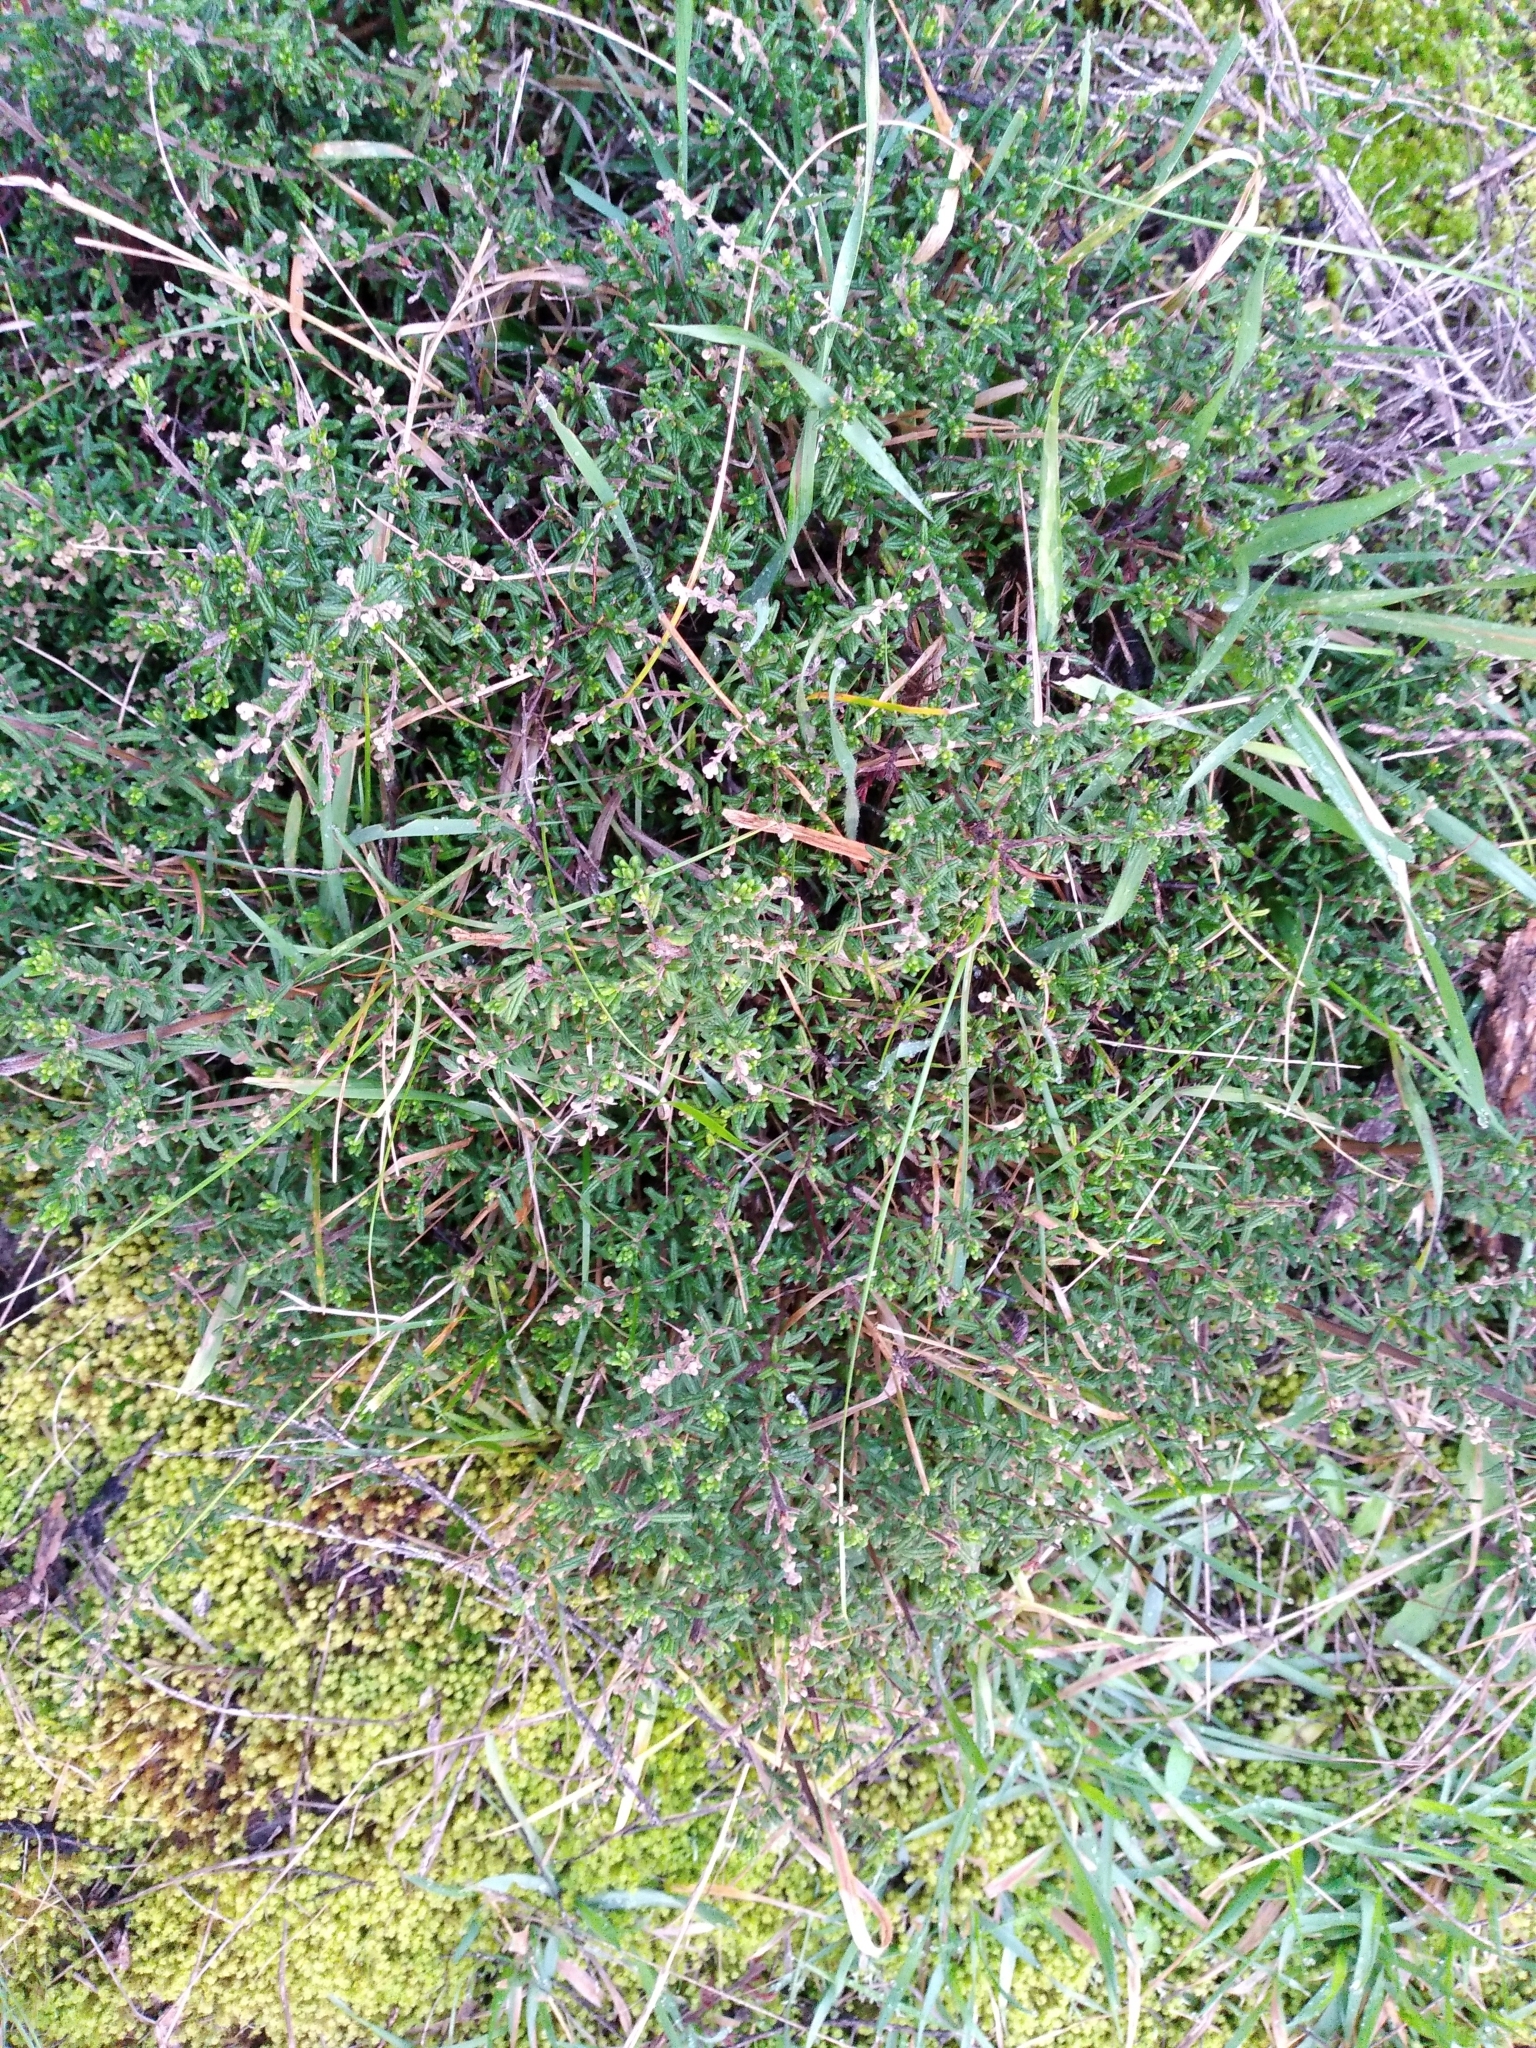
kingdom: Plantae
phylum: Tracheophyta
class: Magnoliopsida
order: Rosales
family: Rhamnaceae
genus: Pomaderris
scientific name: Pomaderris amoena
